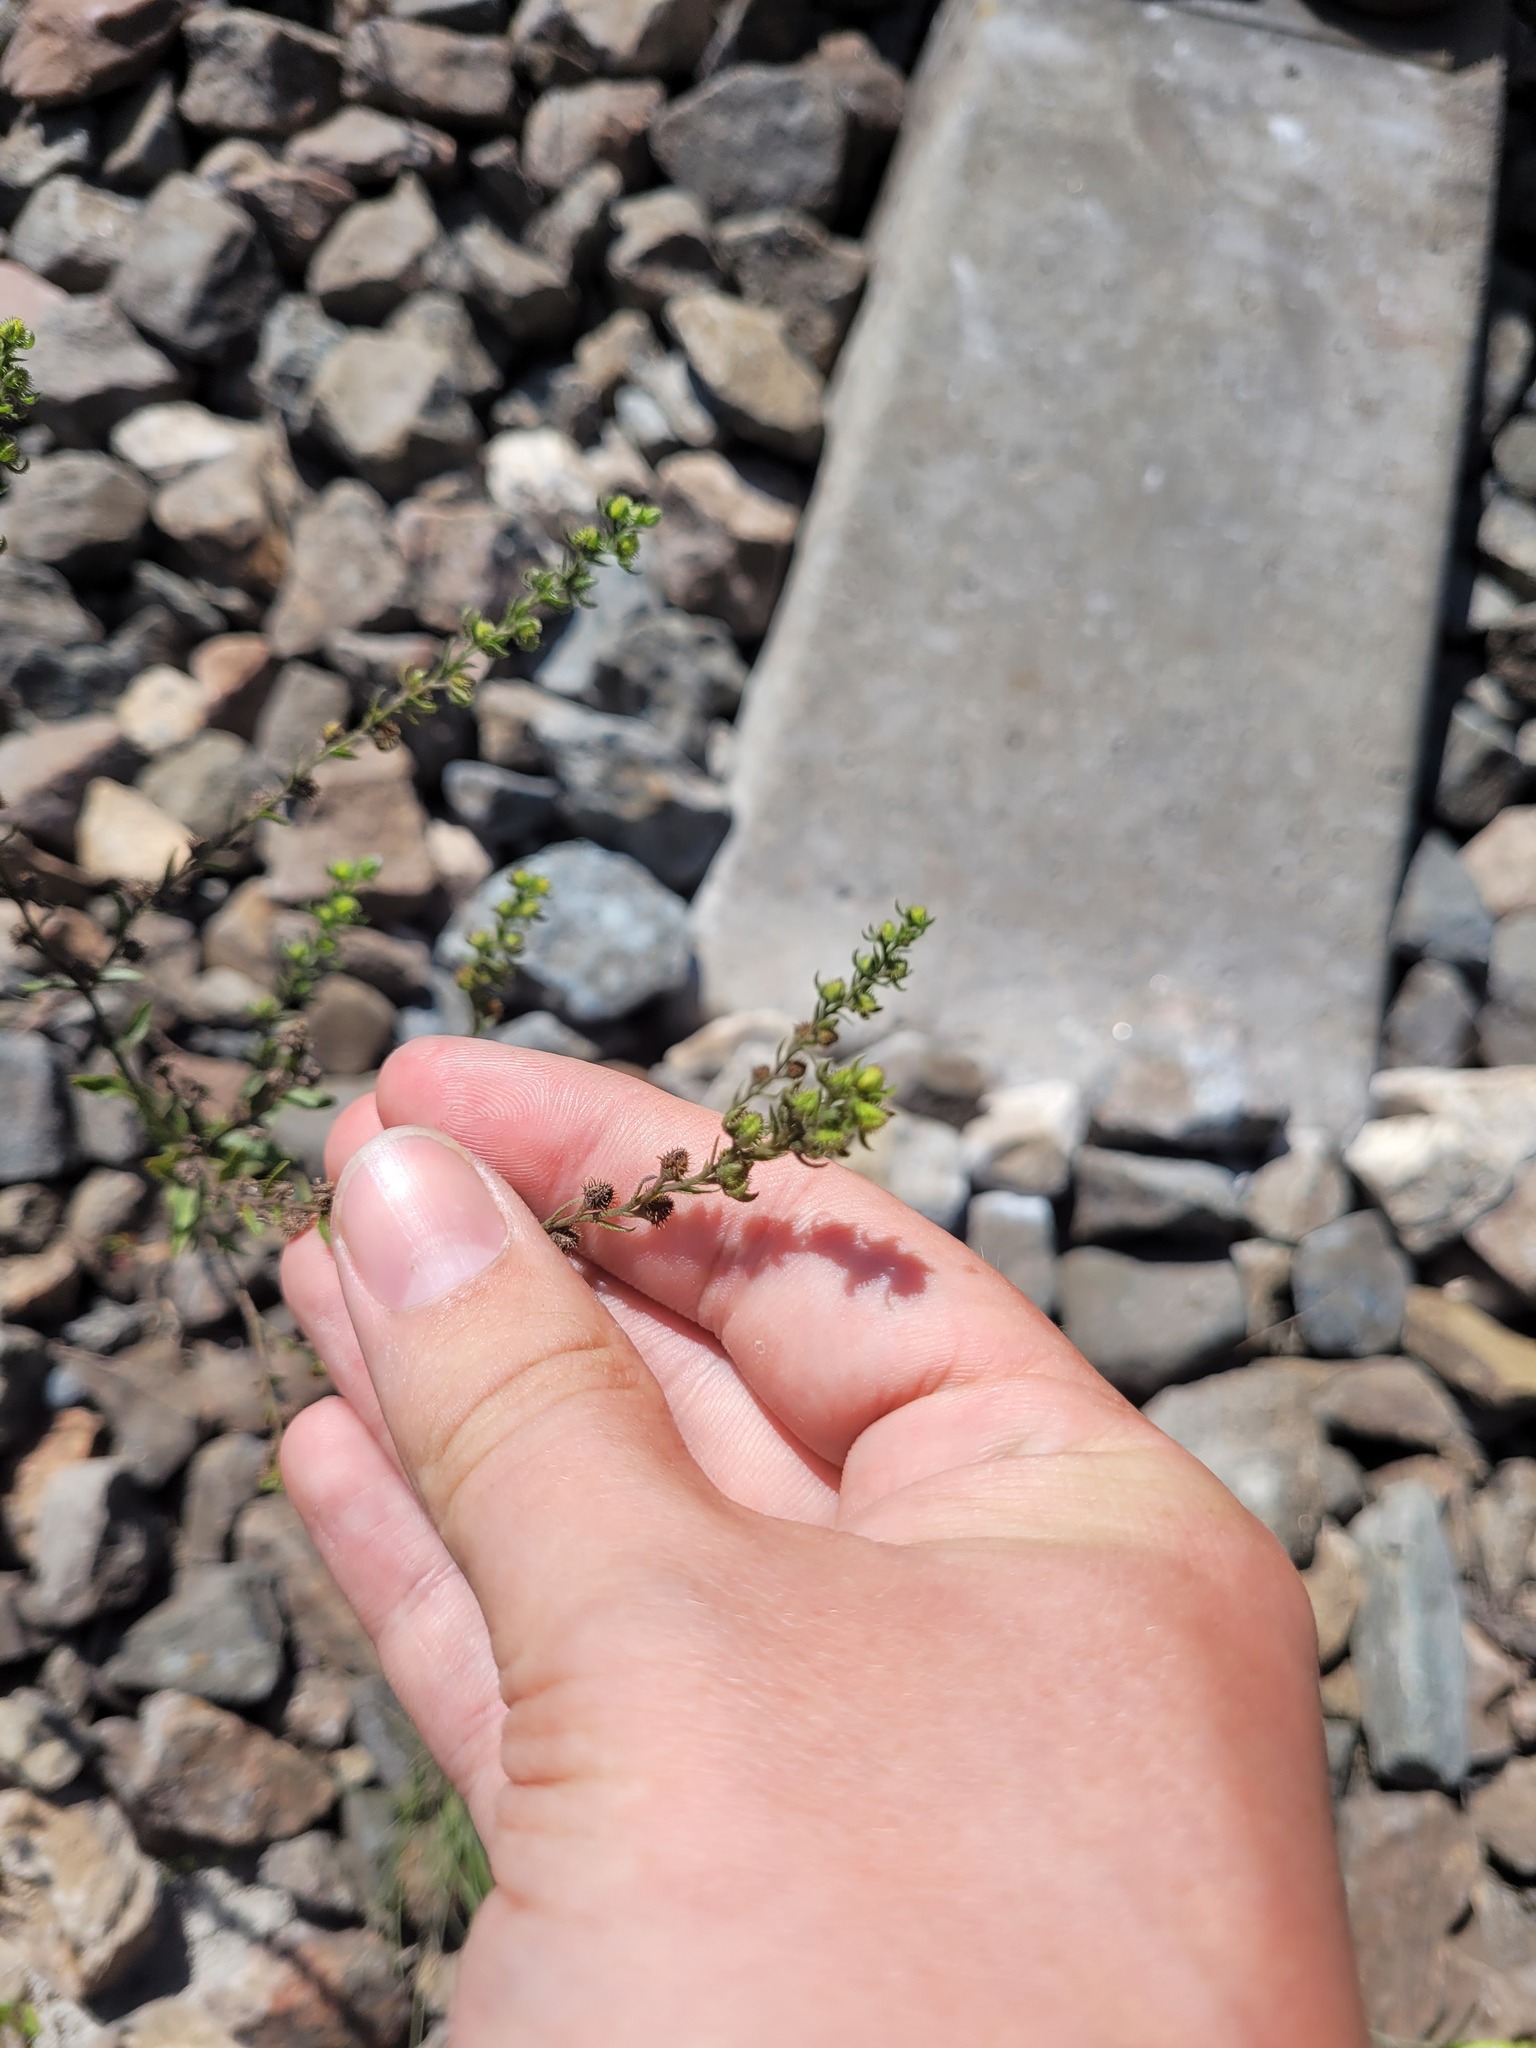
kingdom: Plantae
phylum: Tracheophyta
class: Magnoliopsida
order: Boraginales
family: Boraginaceae
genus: Lappula
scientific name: Lappula squarrosa
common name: European stickseed
